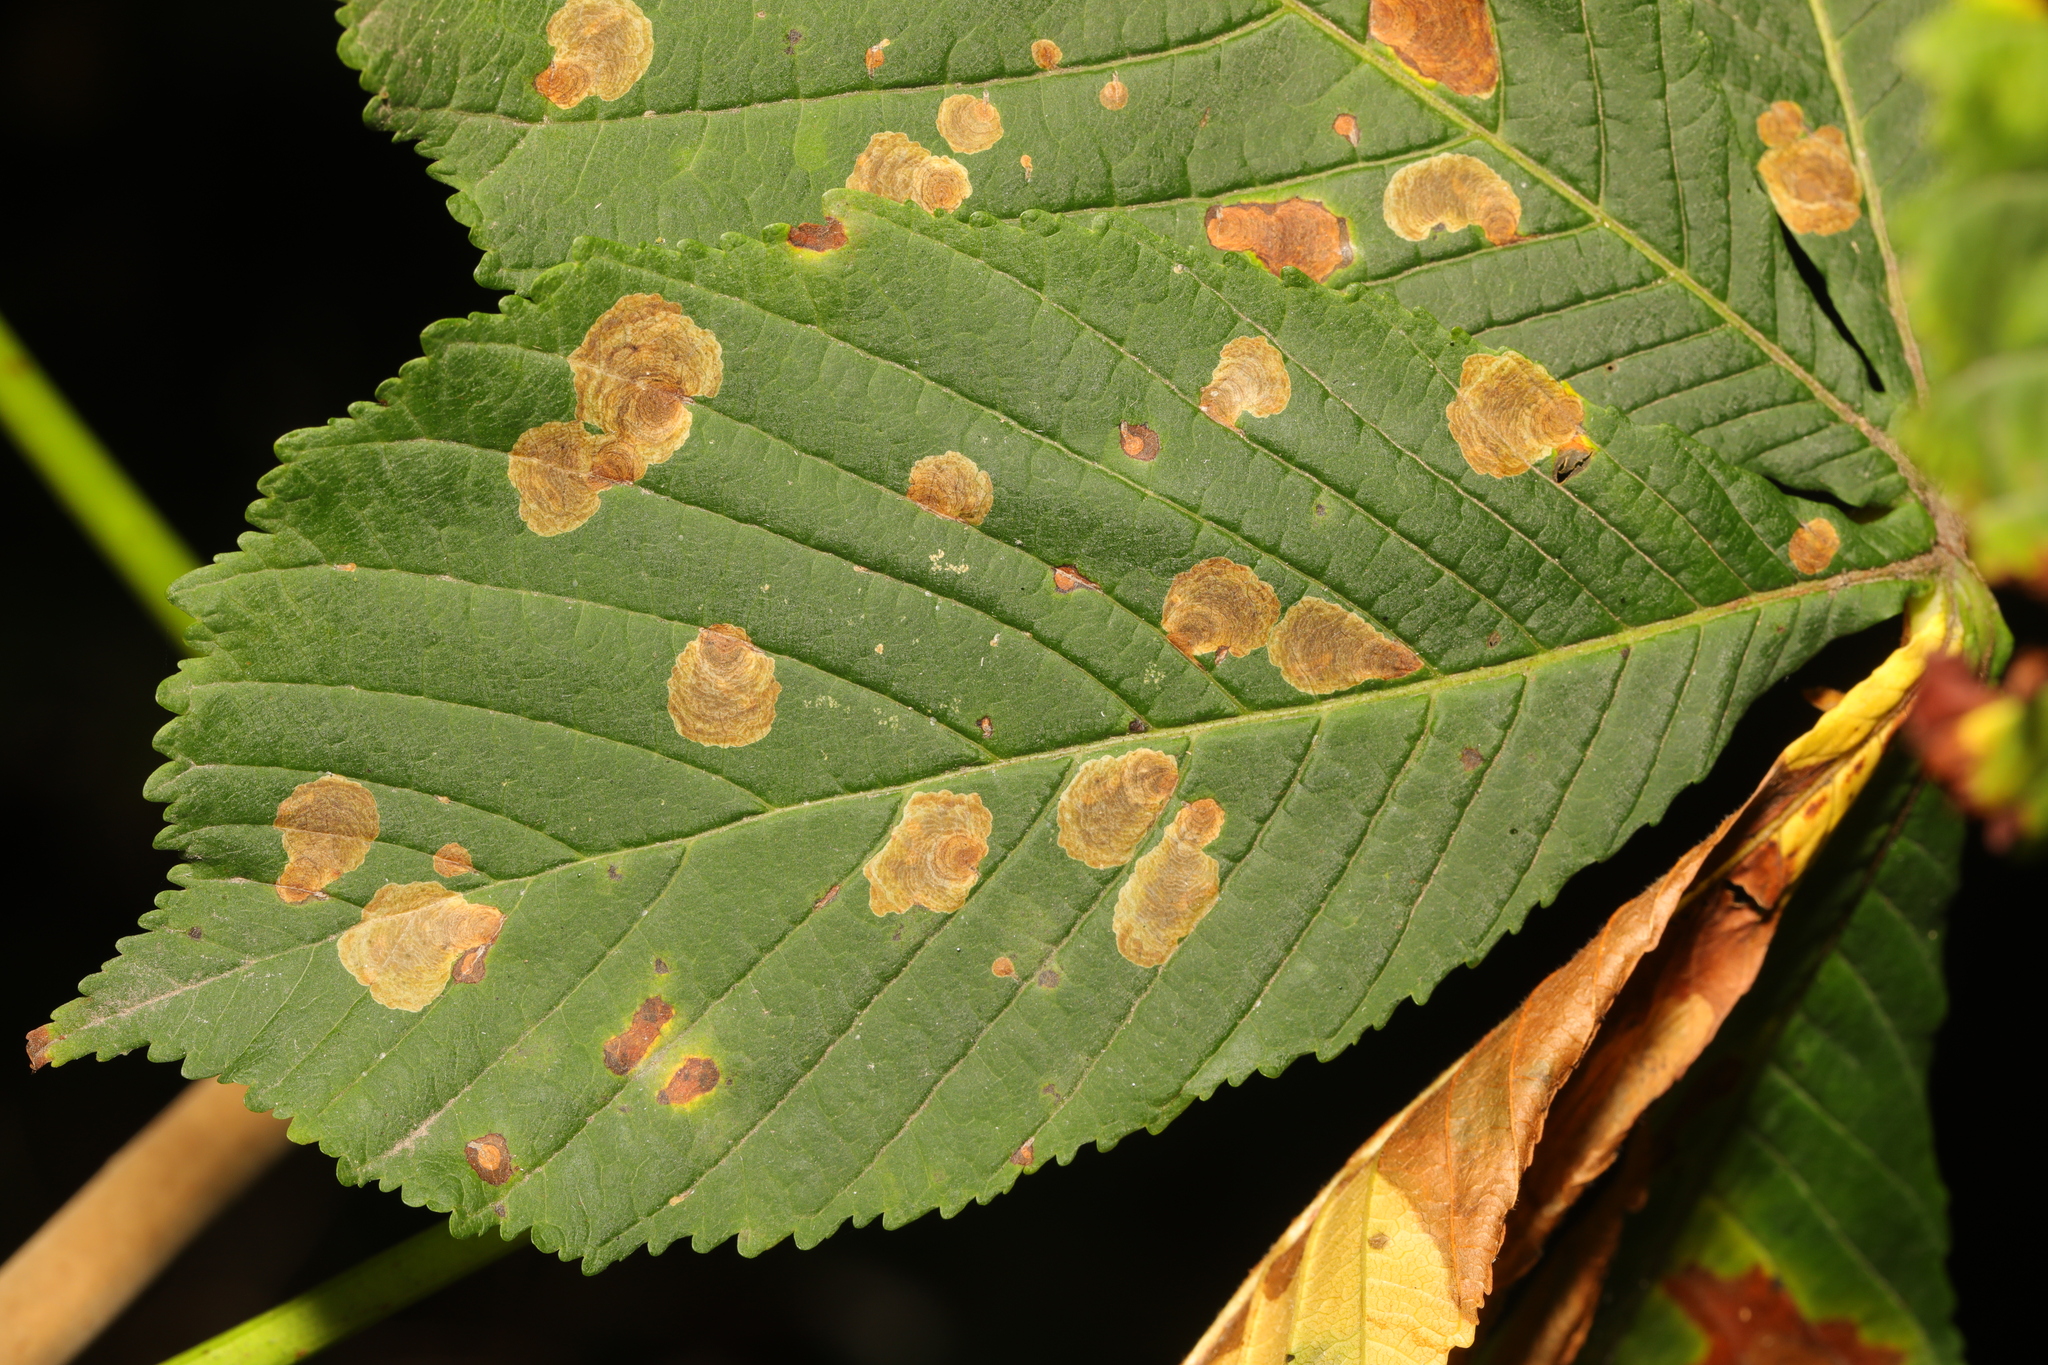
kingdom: Animalia
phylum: Arthropoda
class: Insecta
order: Lepidoptera
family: Gracillariidae
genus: Cameraria
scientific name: Cameraria ohridella
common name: Horse-chestnut leaf-miner
